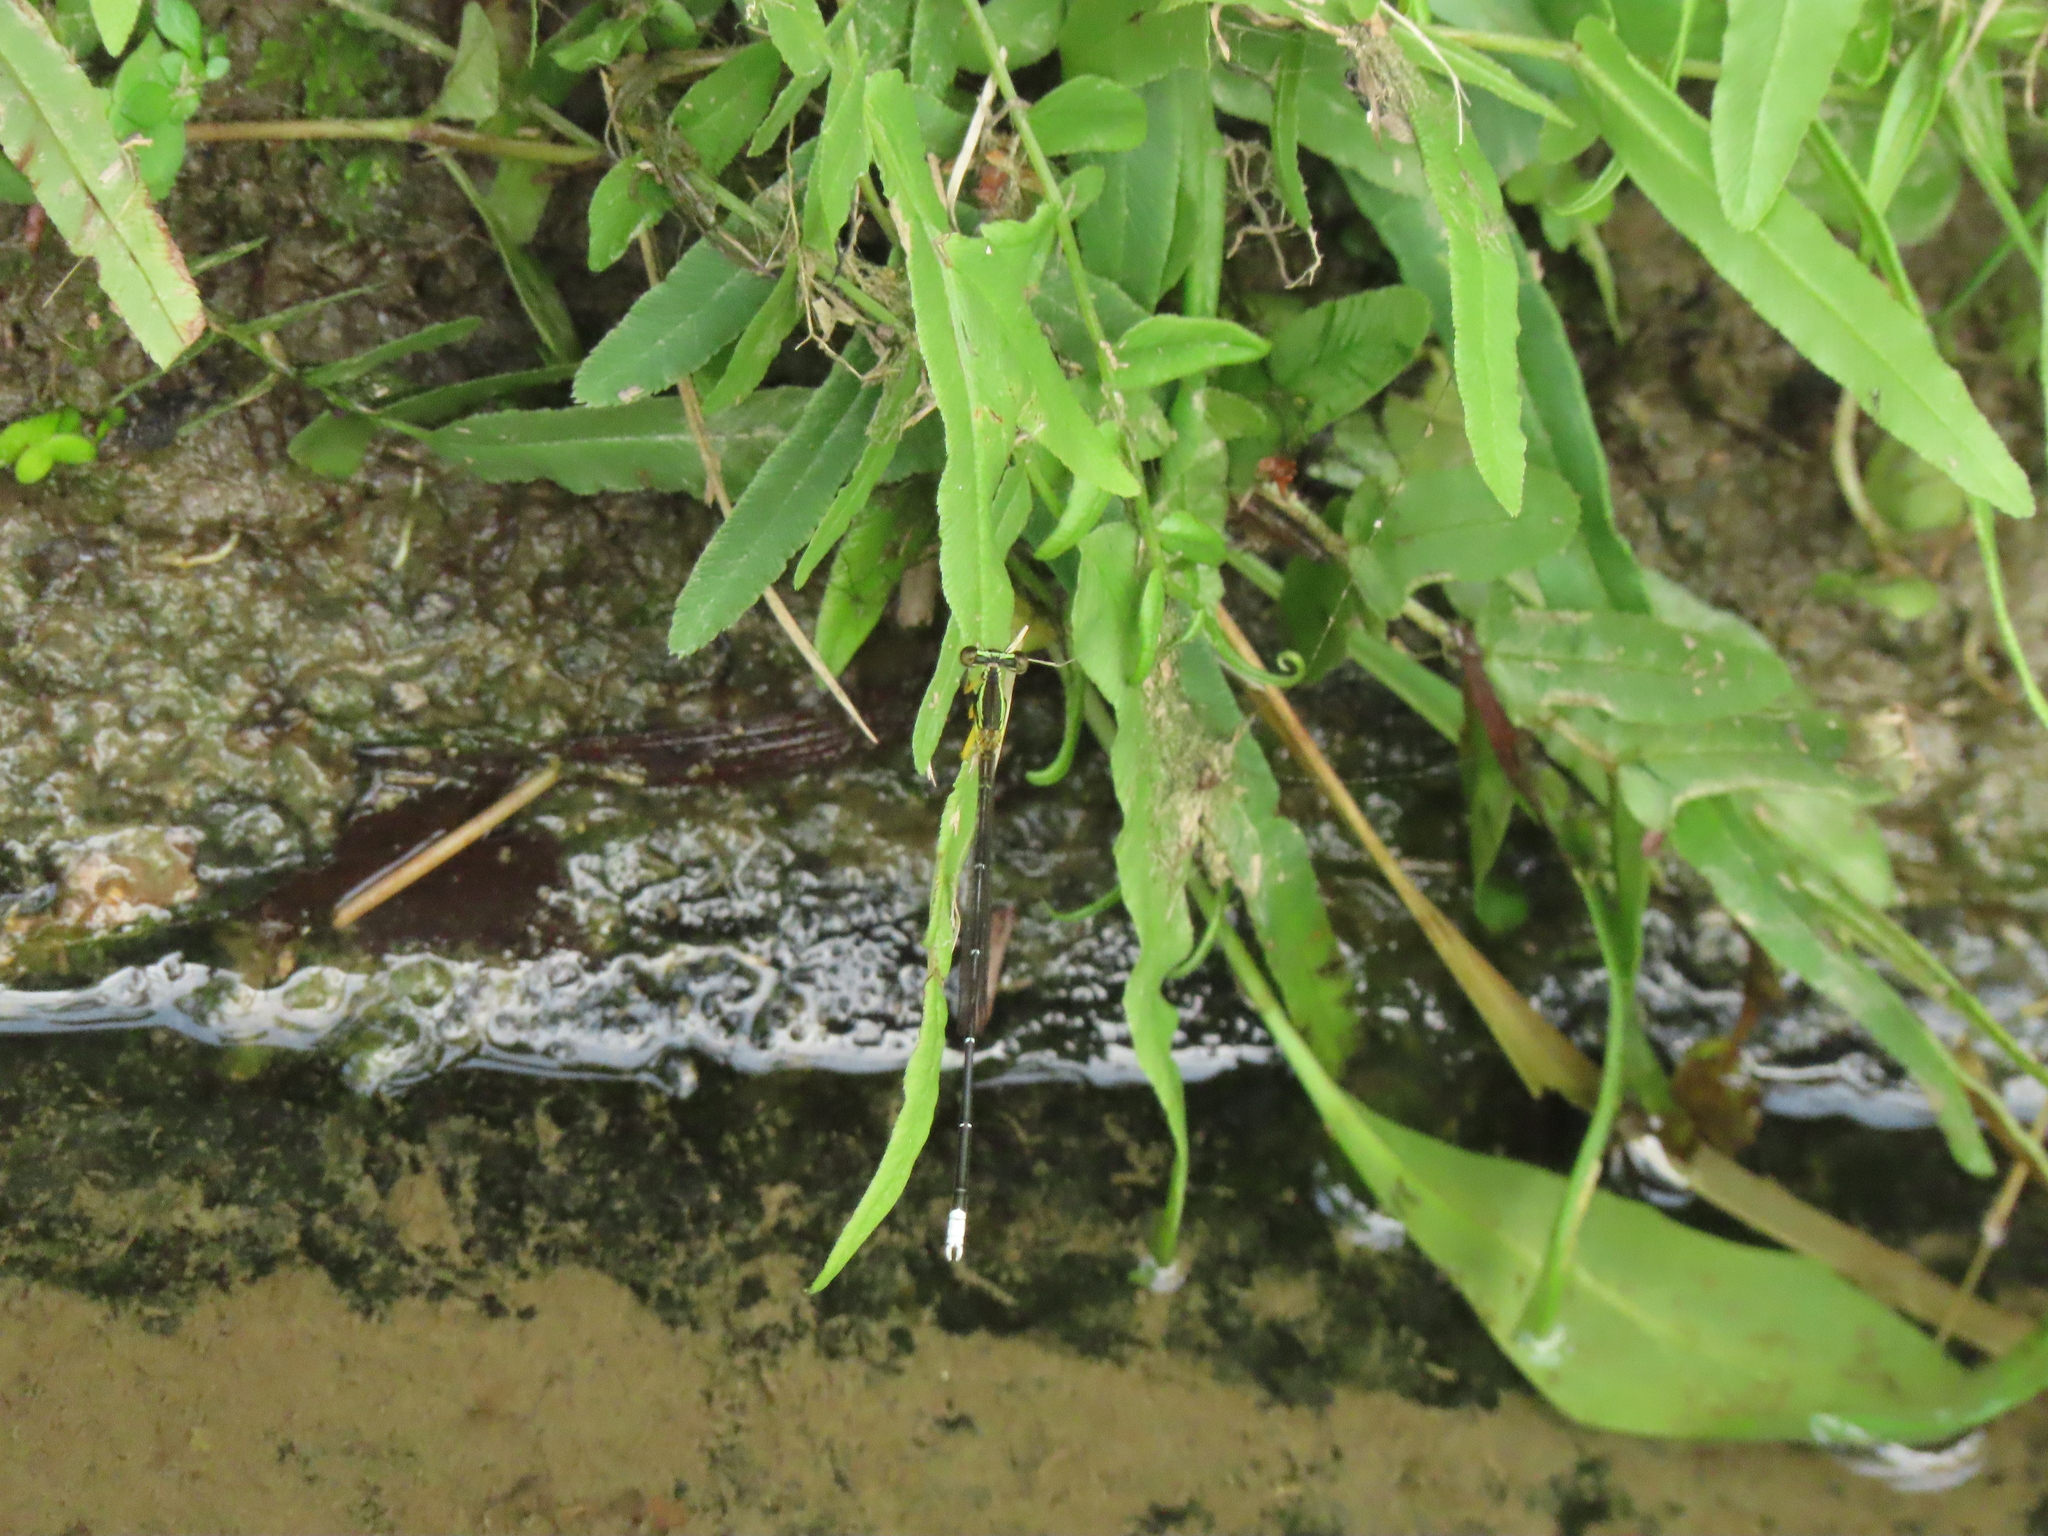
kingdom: Animalia
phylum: Arthropoda
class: Insecta
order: Odonata
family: Platycnemididae
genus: Copera
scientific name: Copera marginipes
